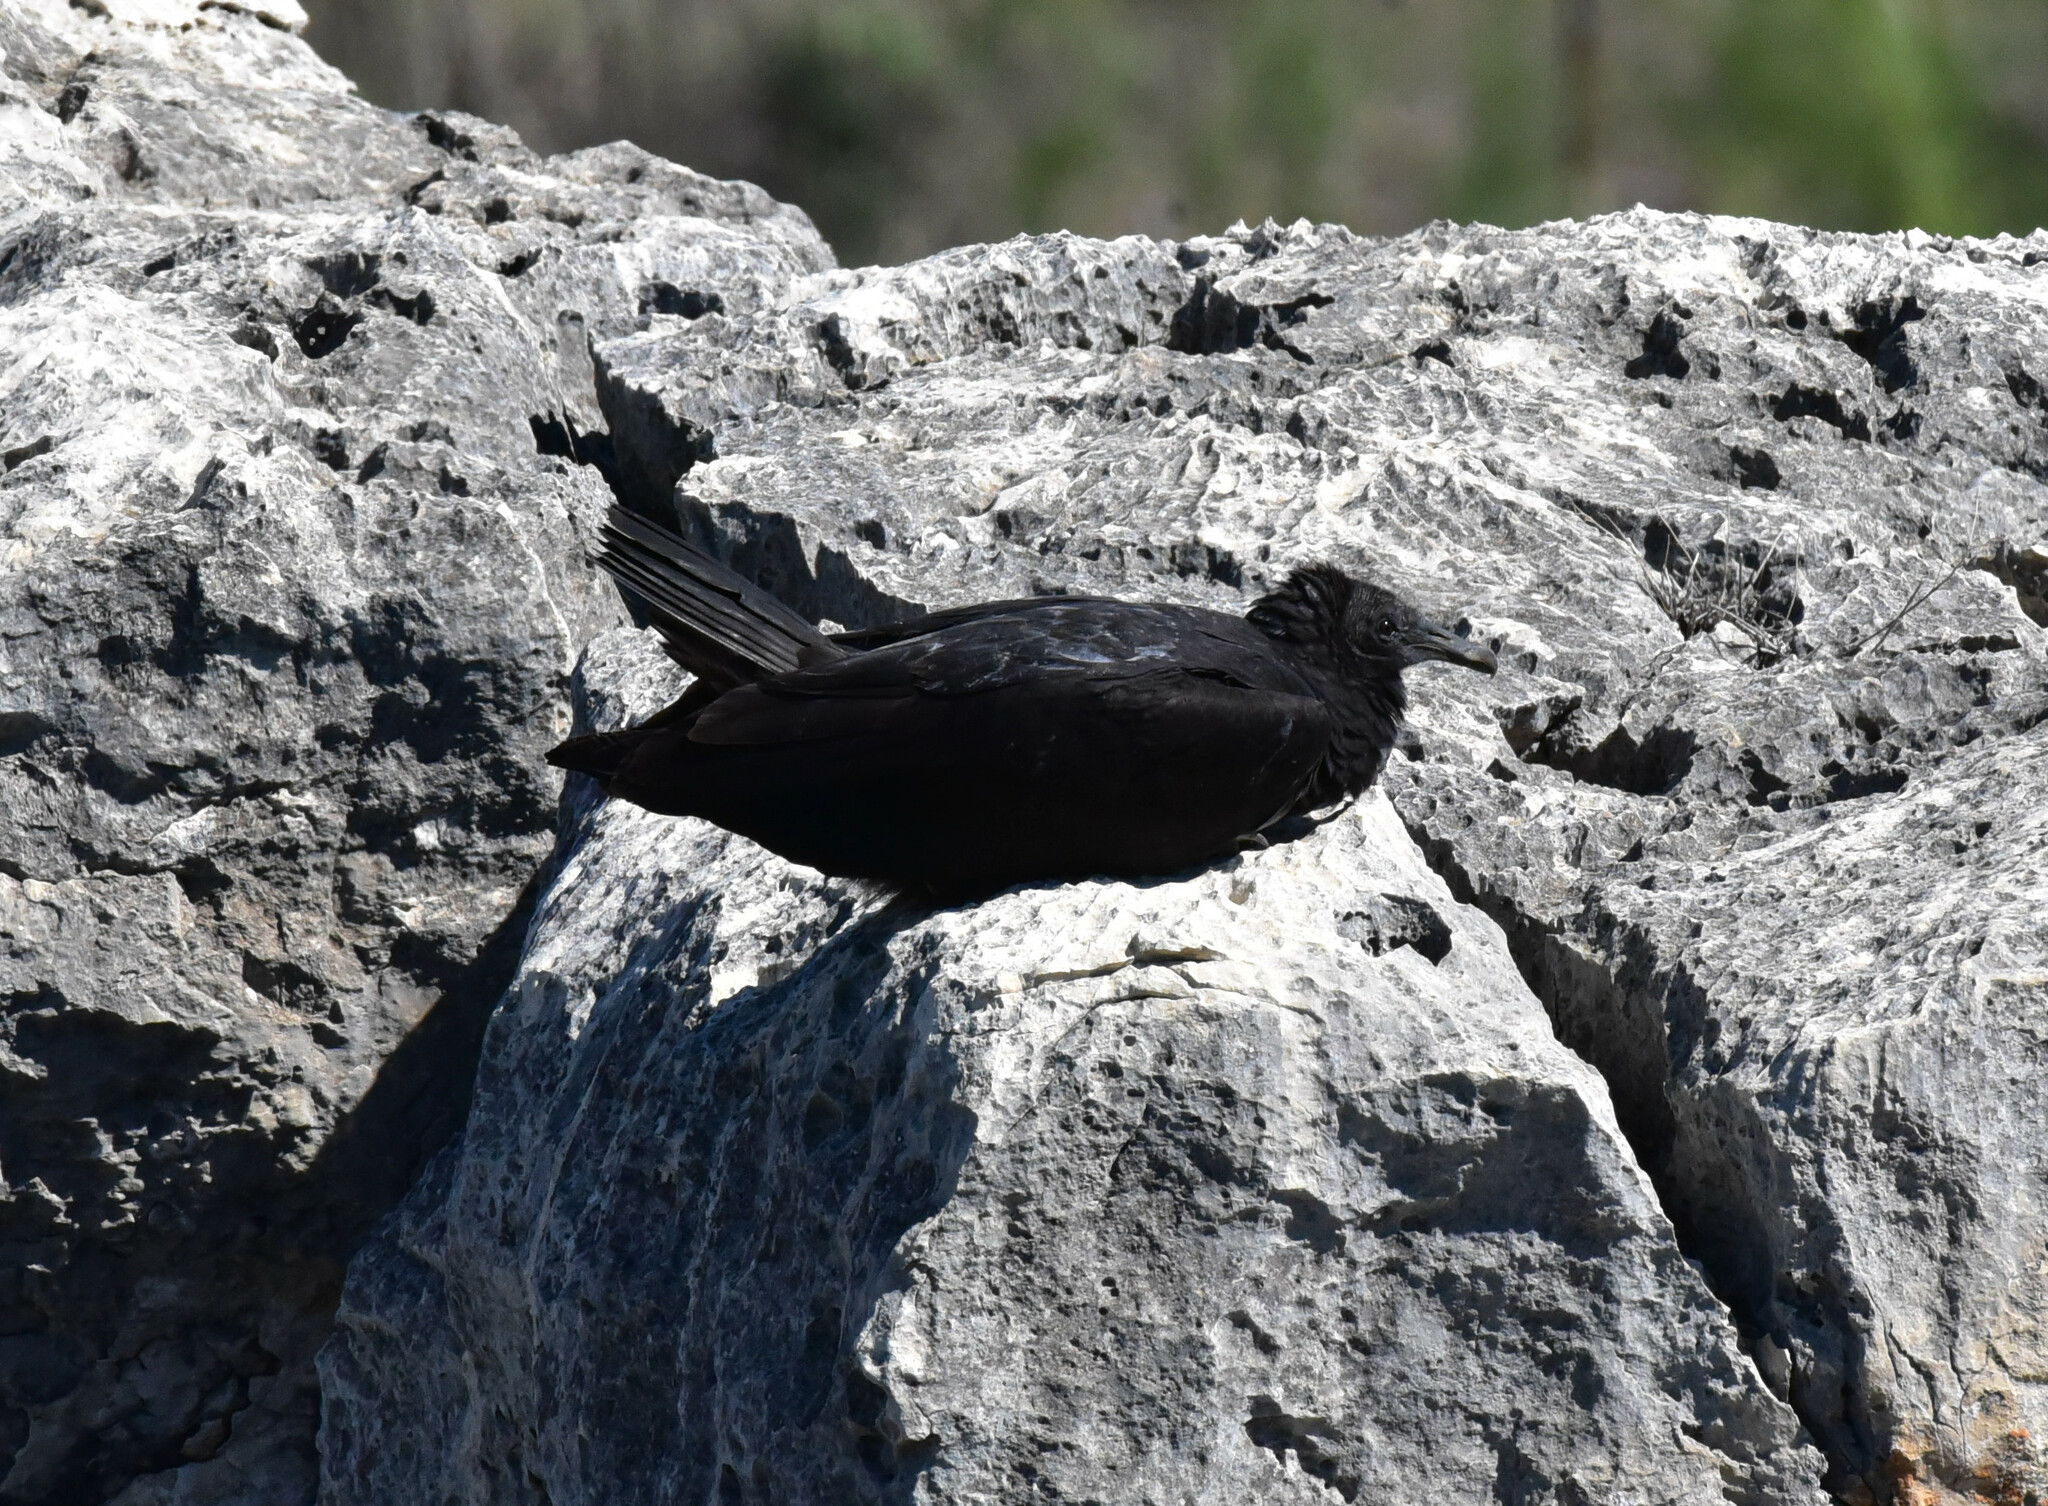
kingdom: Animalia
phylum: Chordata
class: Aves
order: Accipitriformes
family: Cathartidae
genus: Coragyps
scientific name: Coragyps atratus
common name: Black vulture
